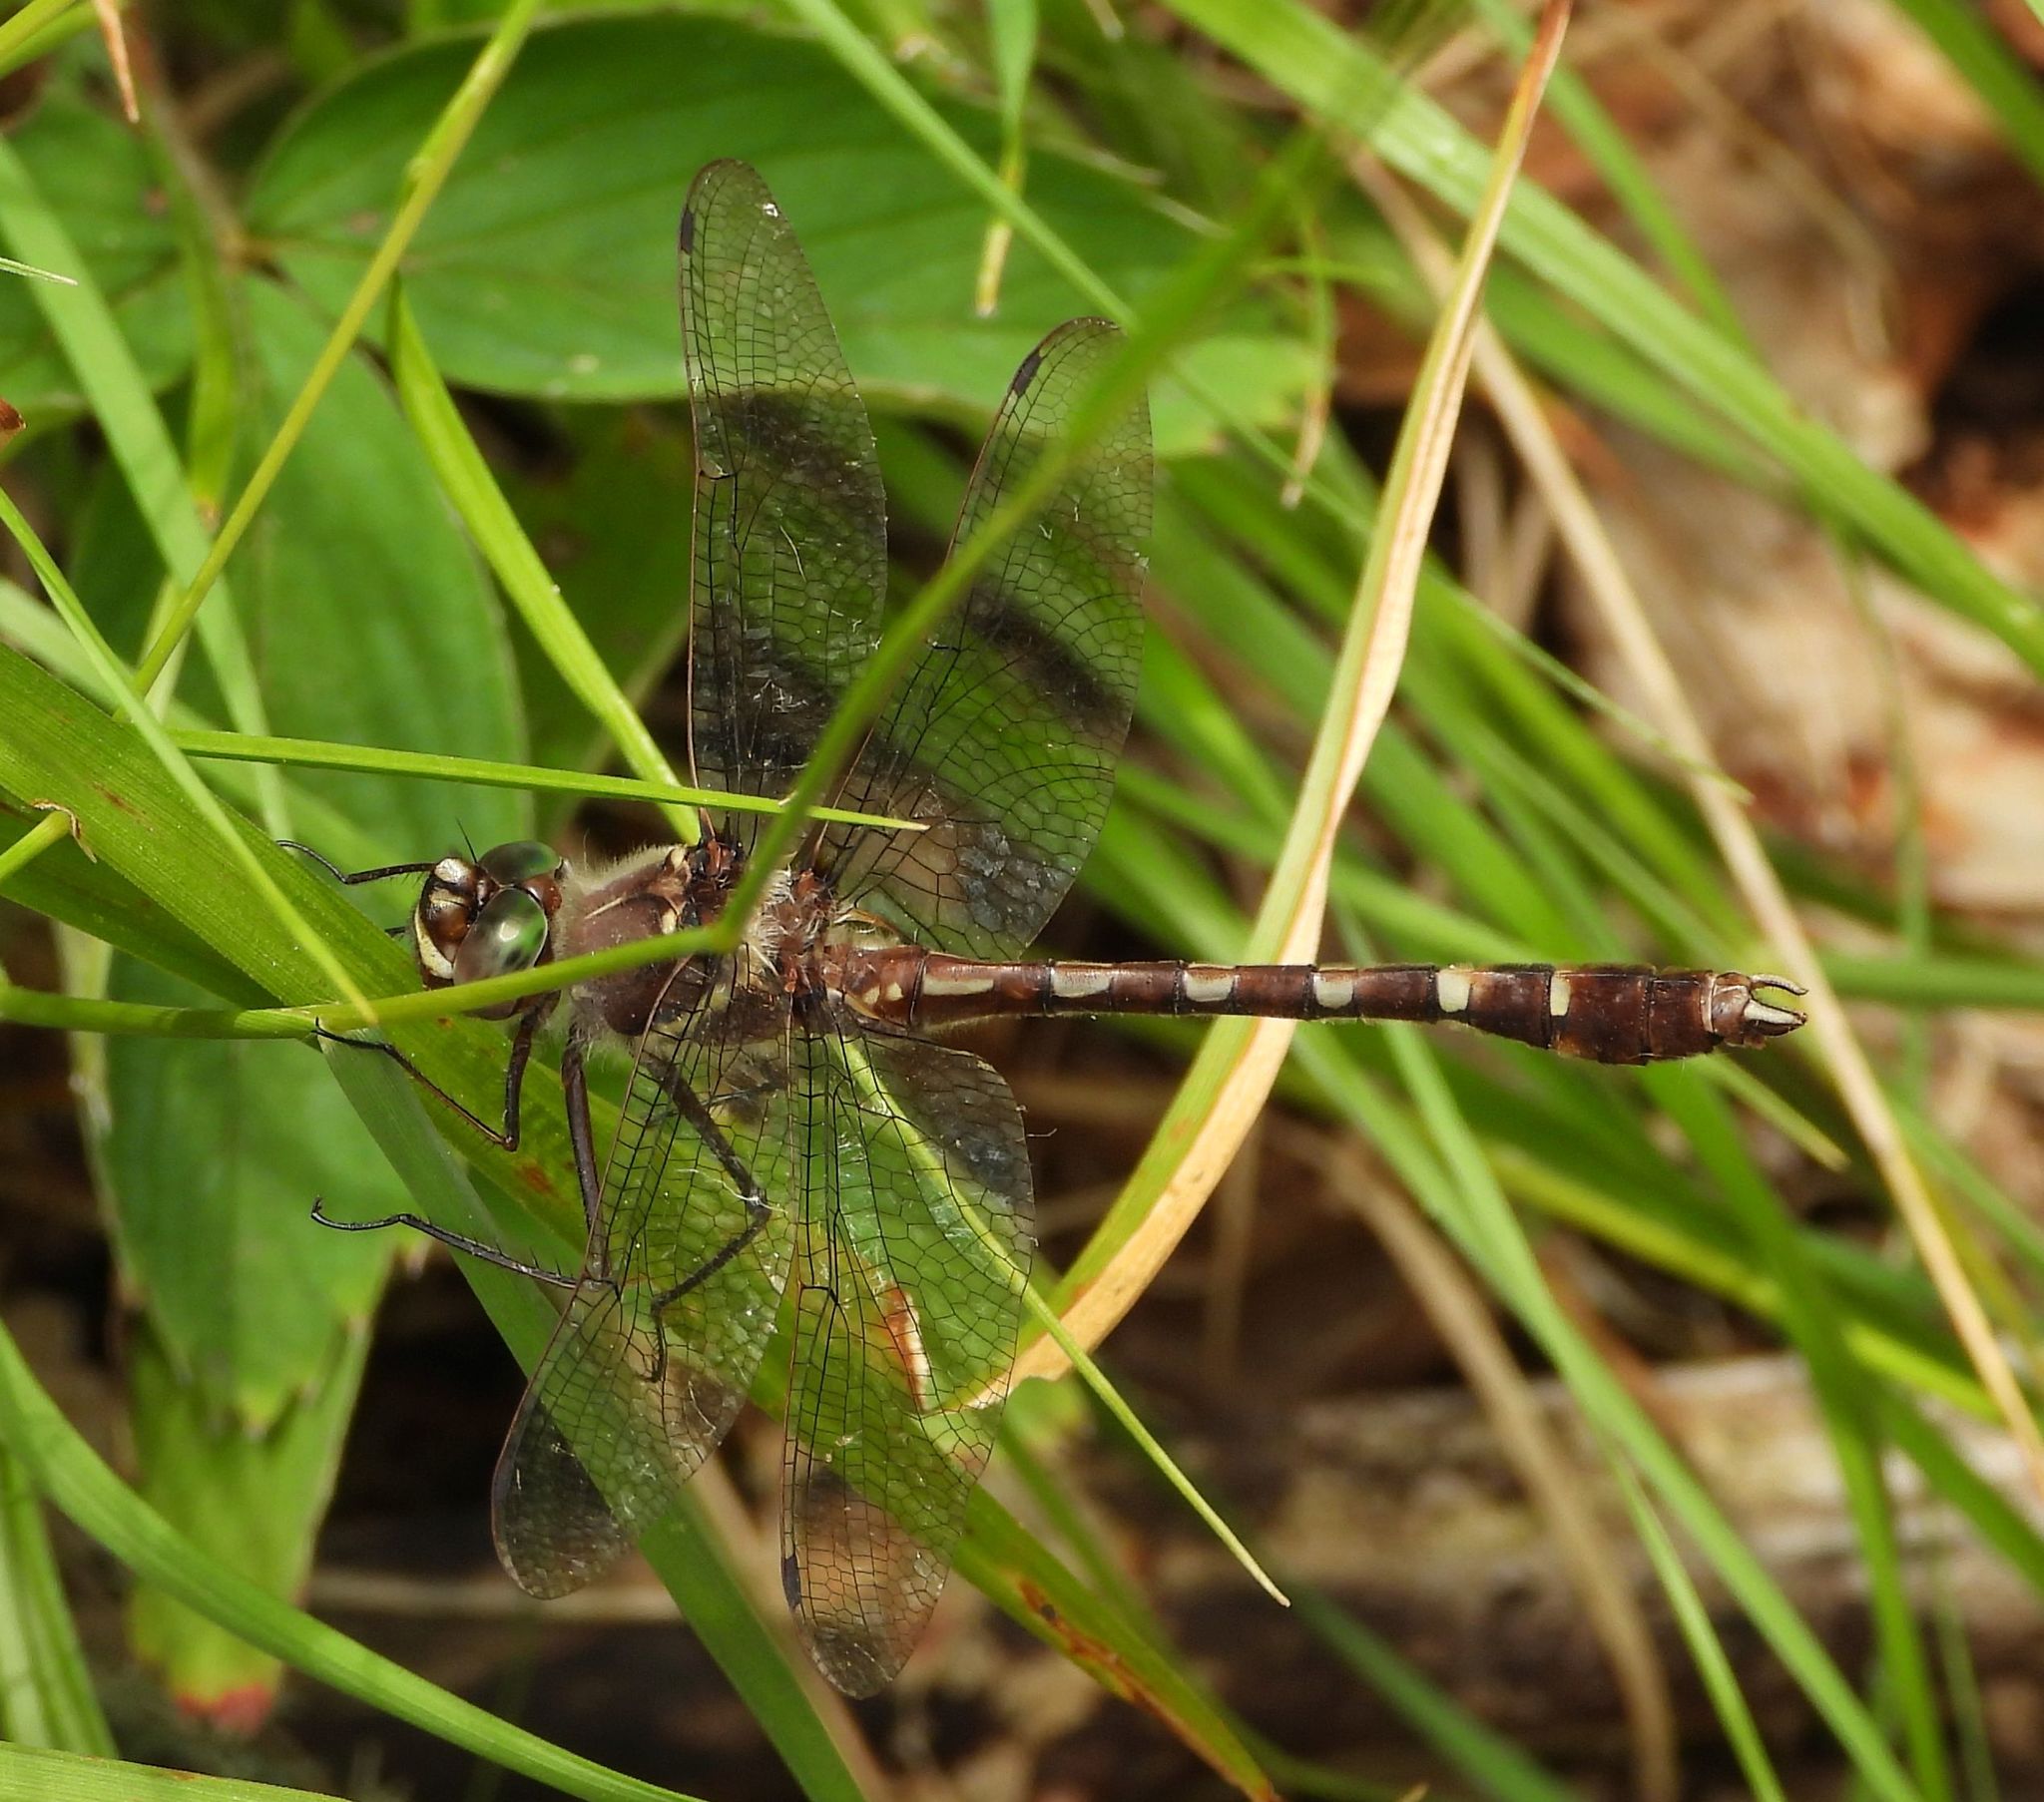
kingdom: Animalia
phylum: Arthropoda
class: Insecta
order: Odonata
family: Macromiidae
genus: Didymops
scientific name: Didymops transversa
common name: Stream cruiser
